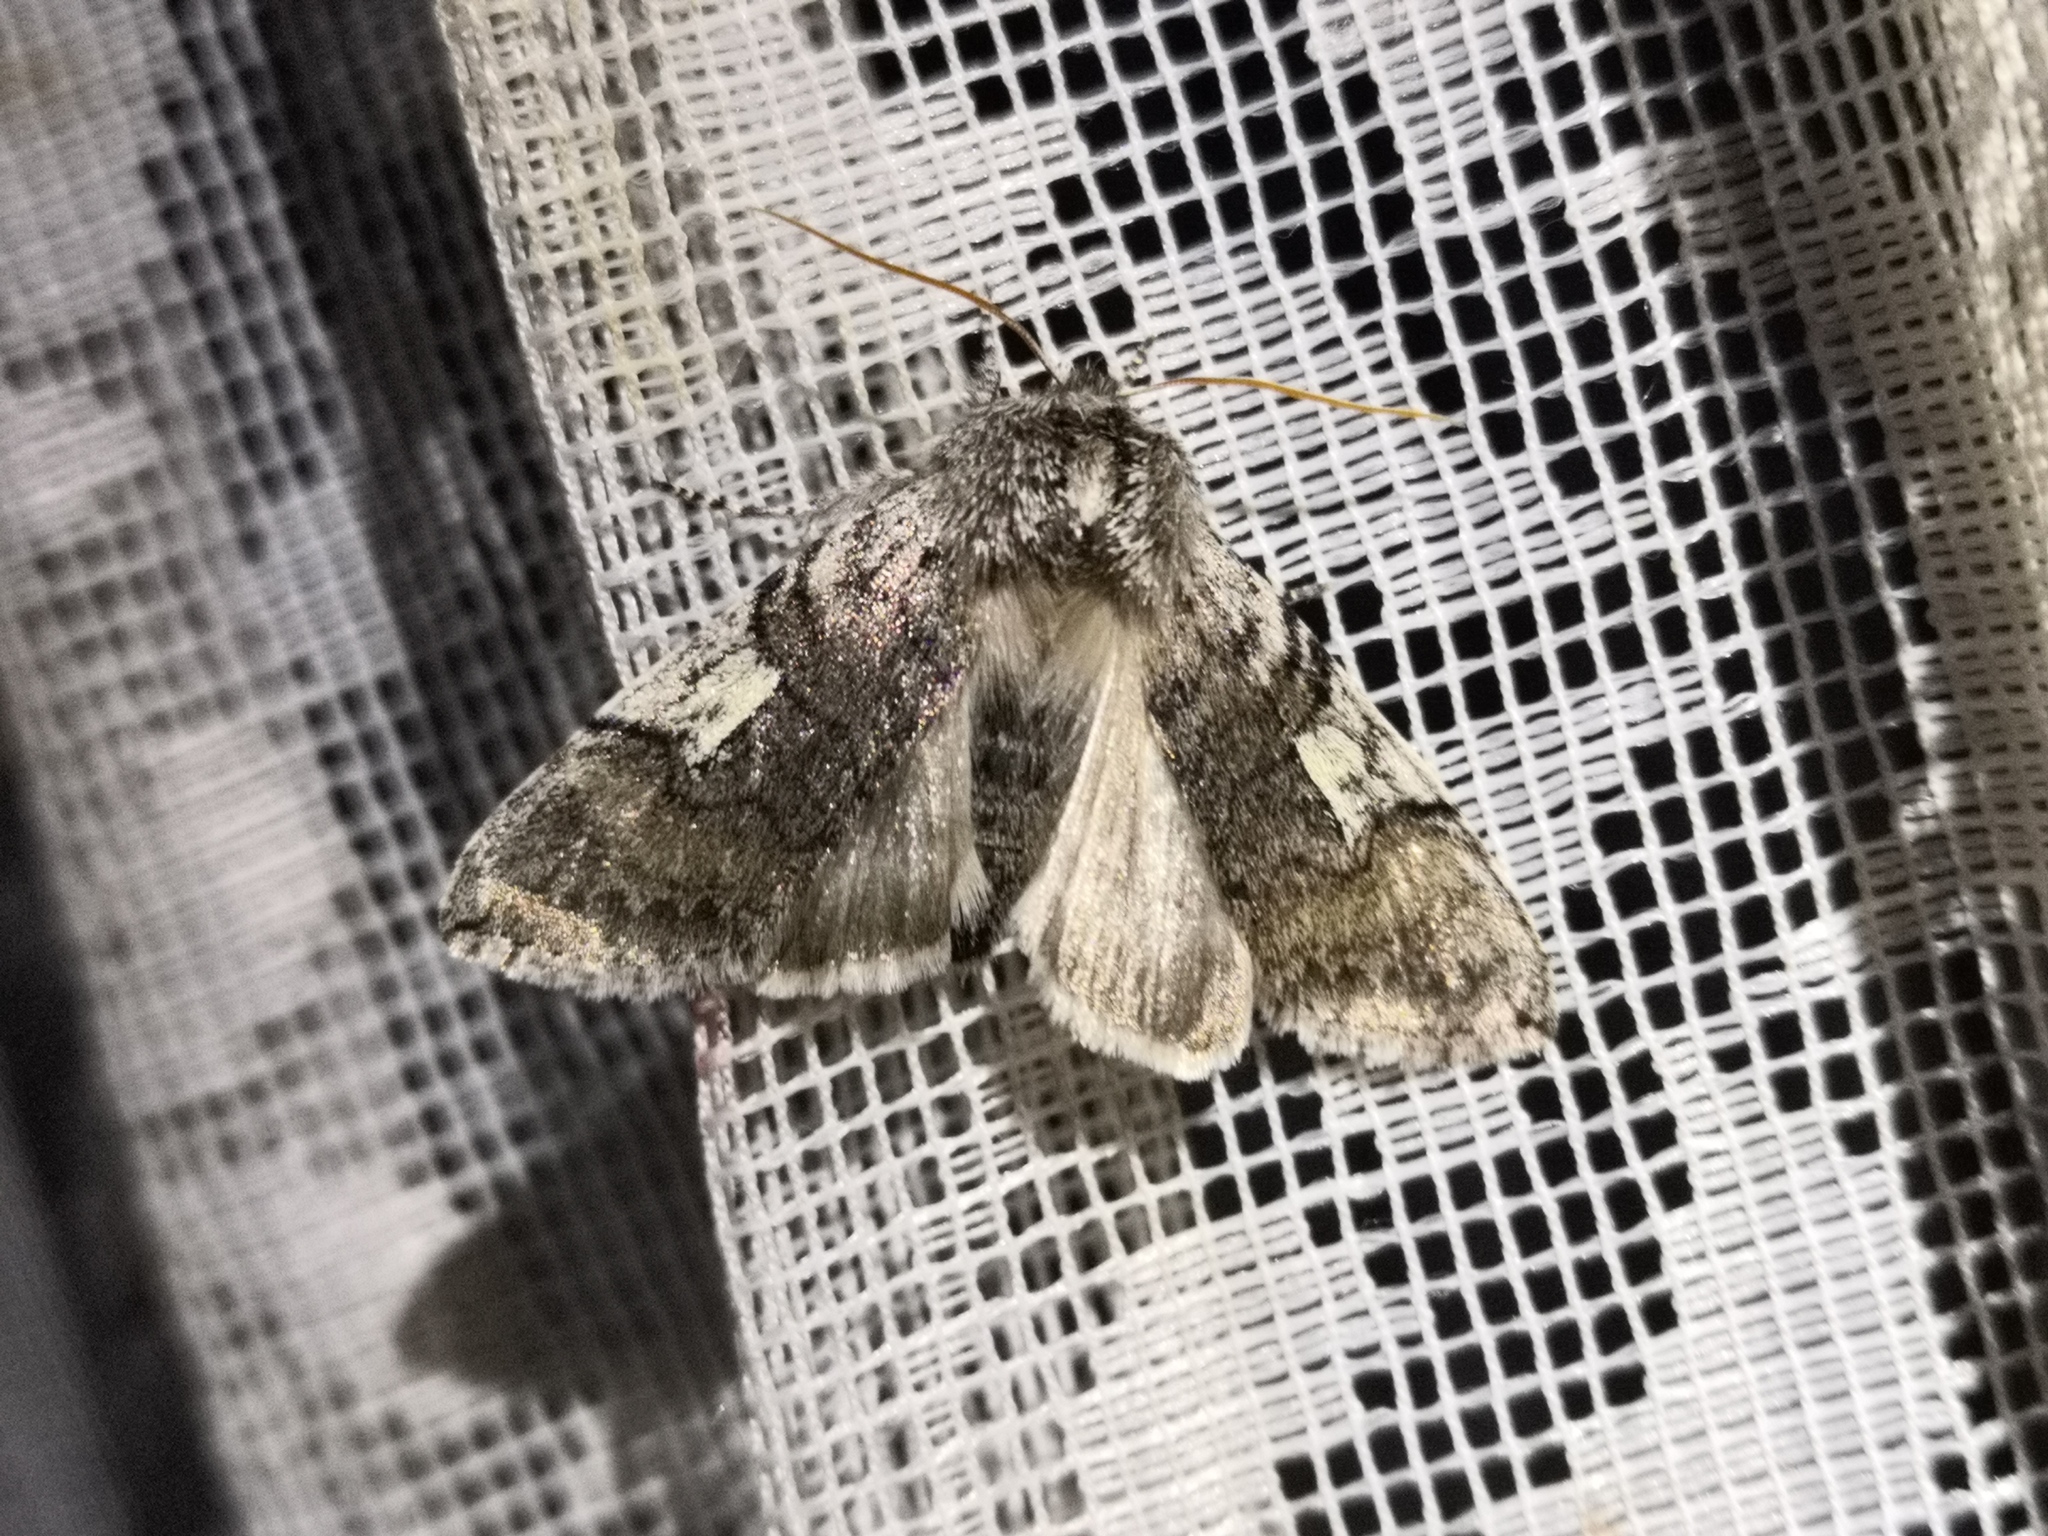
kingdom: Animalia
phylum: Arthropoda
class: Insecta
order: Lepidoptera
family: Drepanidae
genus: Achlya
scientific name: Achlya flavicornis
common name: Yellow horned
